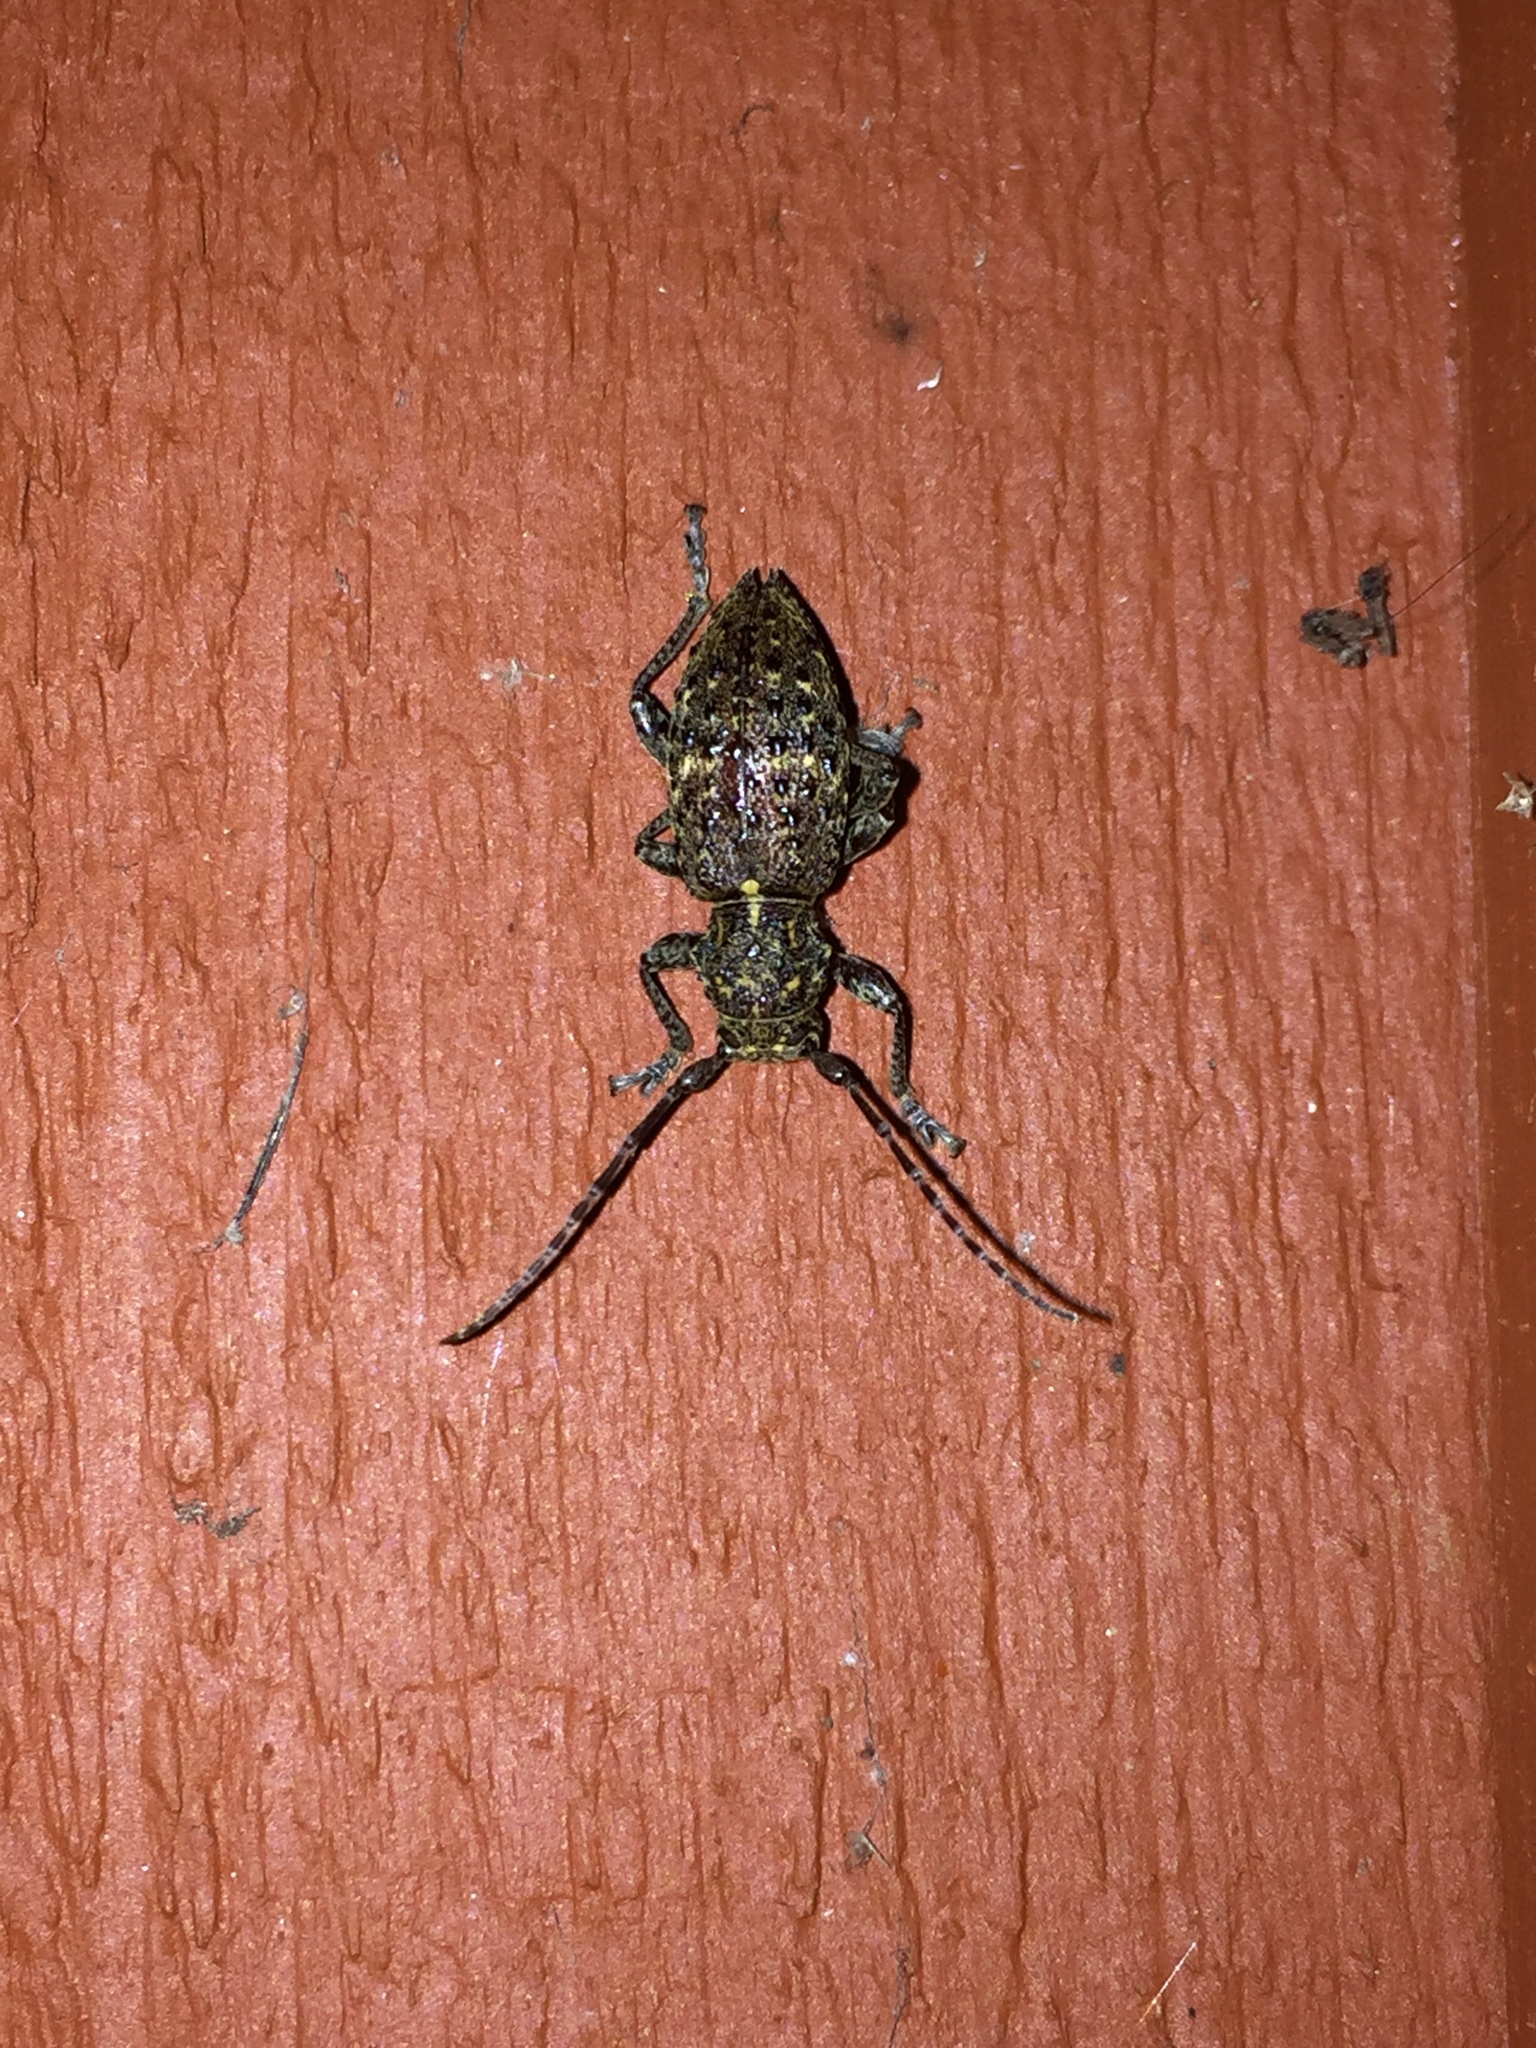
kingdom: Animalia
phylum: Arthropoda
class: Insecta
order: Coleoptera
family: Cerambycidae
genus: Plectrura
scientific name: Plectrura spinicauda
